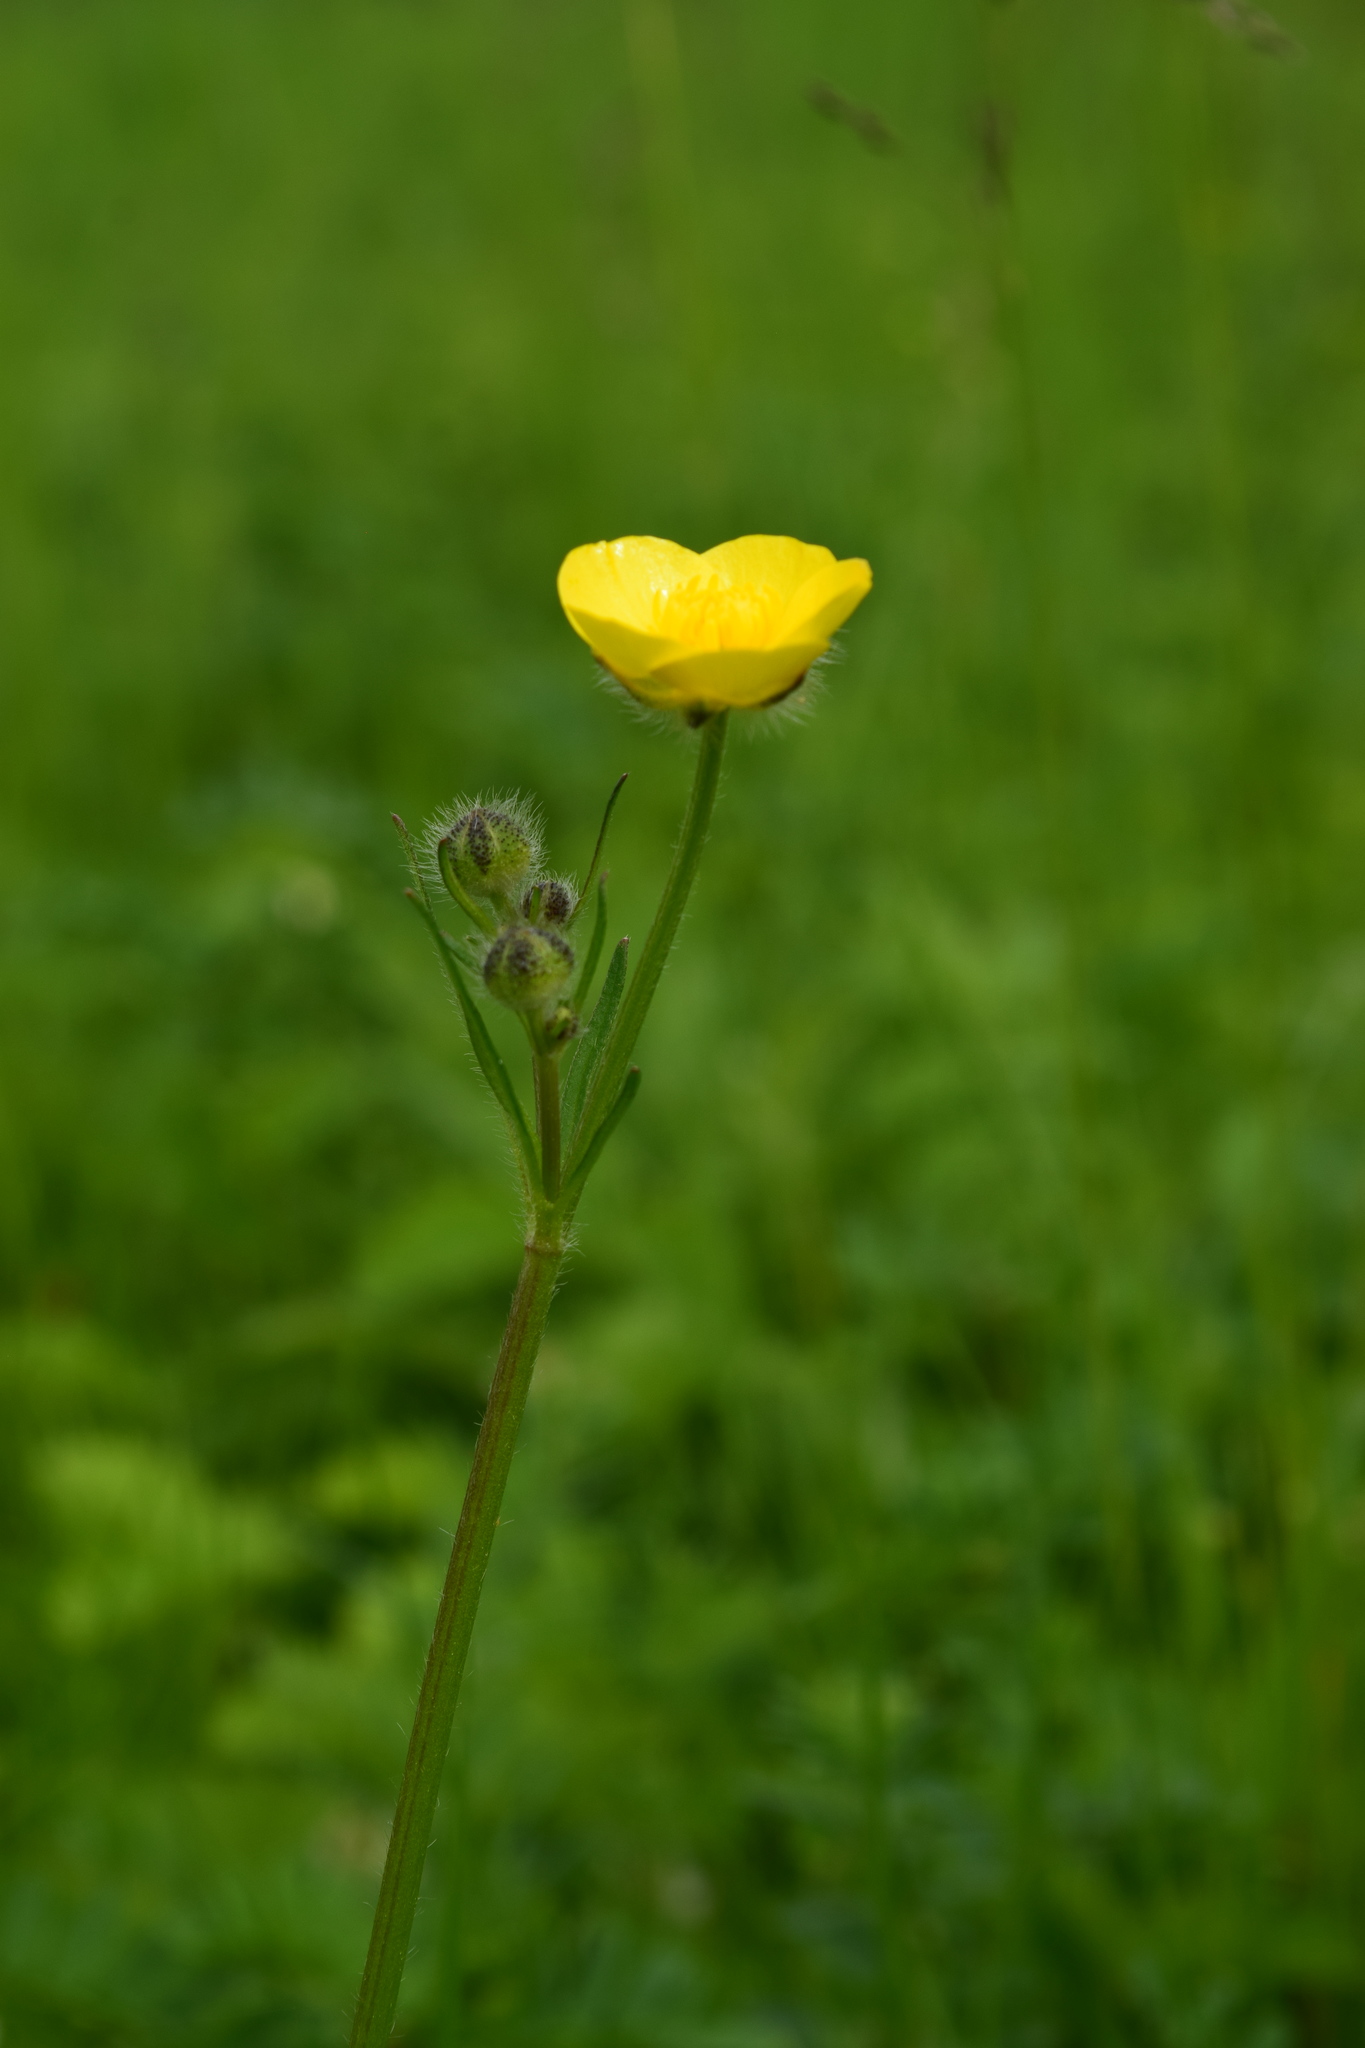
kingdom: Plantae
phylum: Tracheophyta
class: Magnoliopsida
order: Ranunculales
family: Ranunculaceae
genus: Ranunculus
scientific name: Ranunculus polyanthemos
